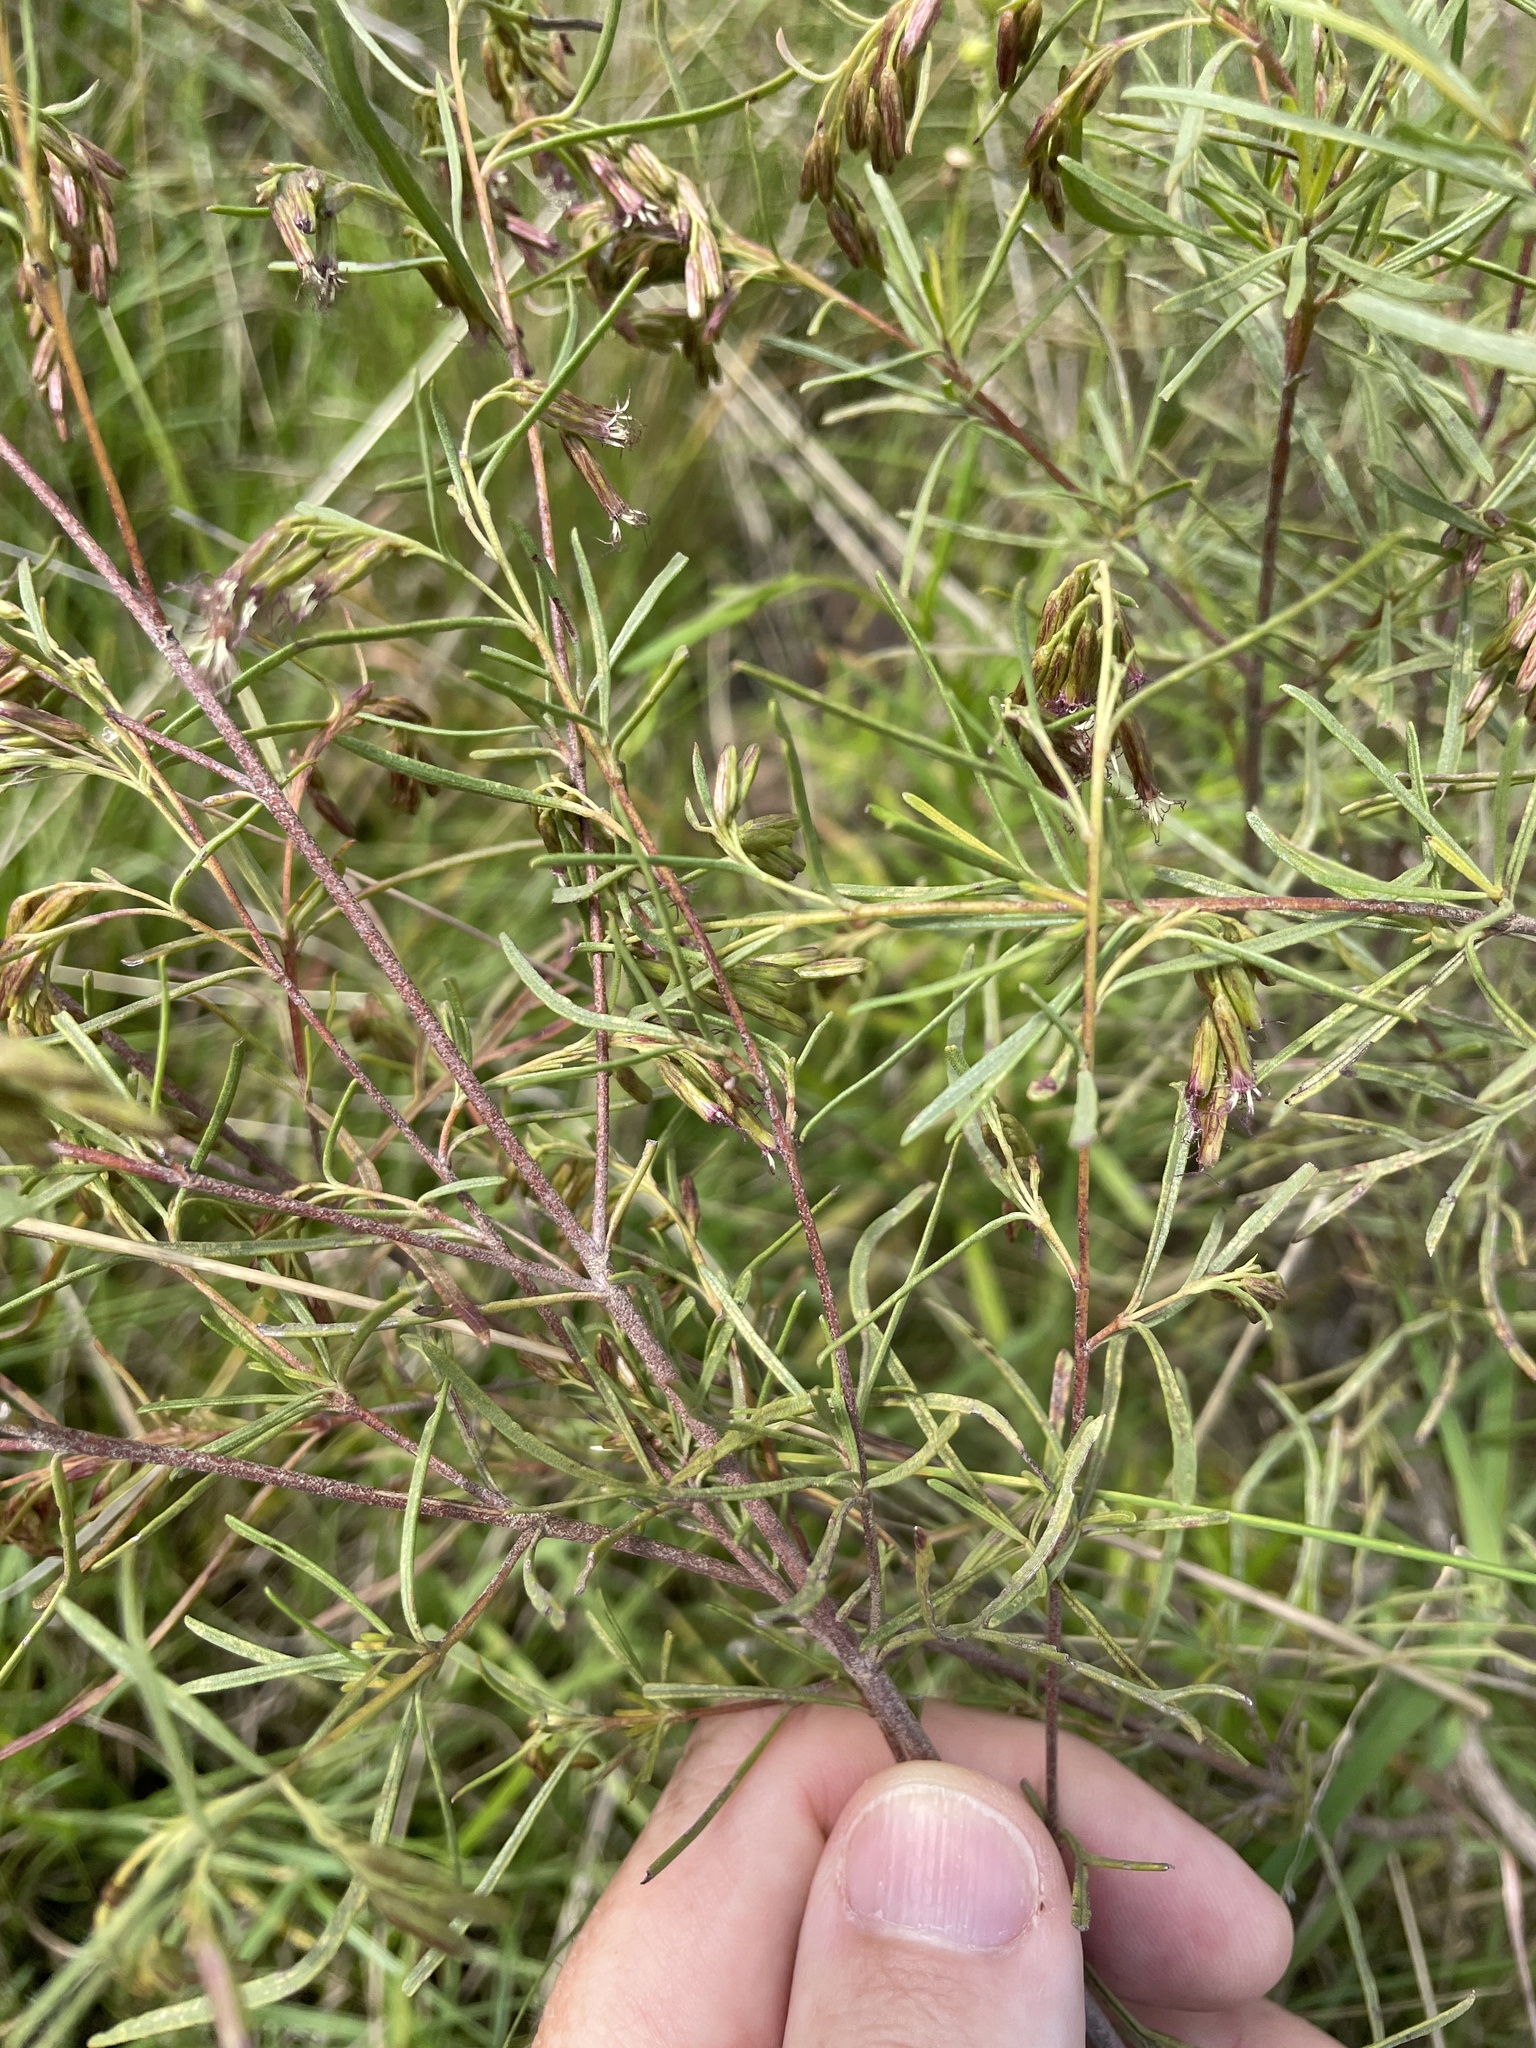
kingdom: Plantae
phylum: Tracheophyta
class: Magnoliopsida
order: Asterales
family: Asteraceae
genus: Acanthostyles
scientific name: Acanthostyles buniifolius
